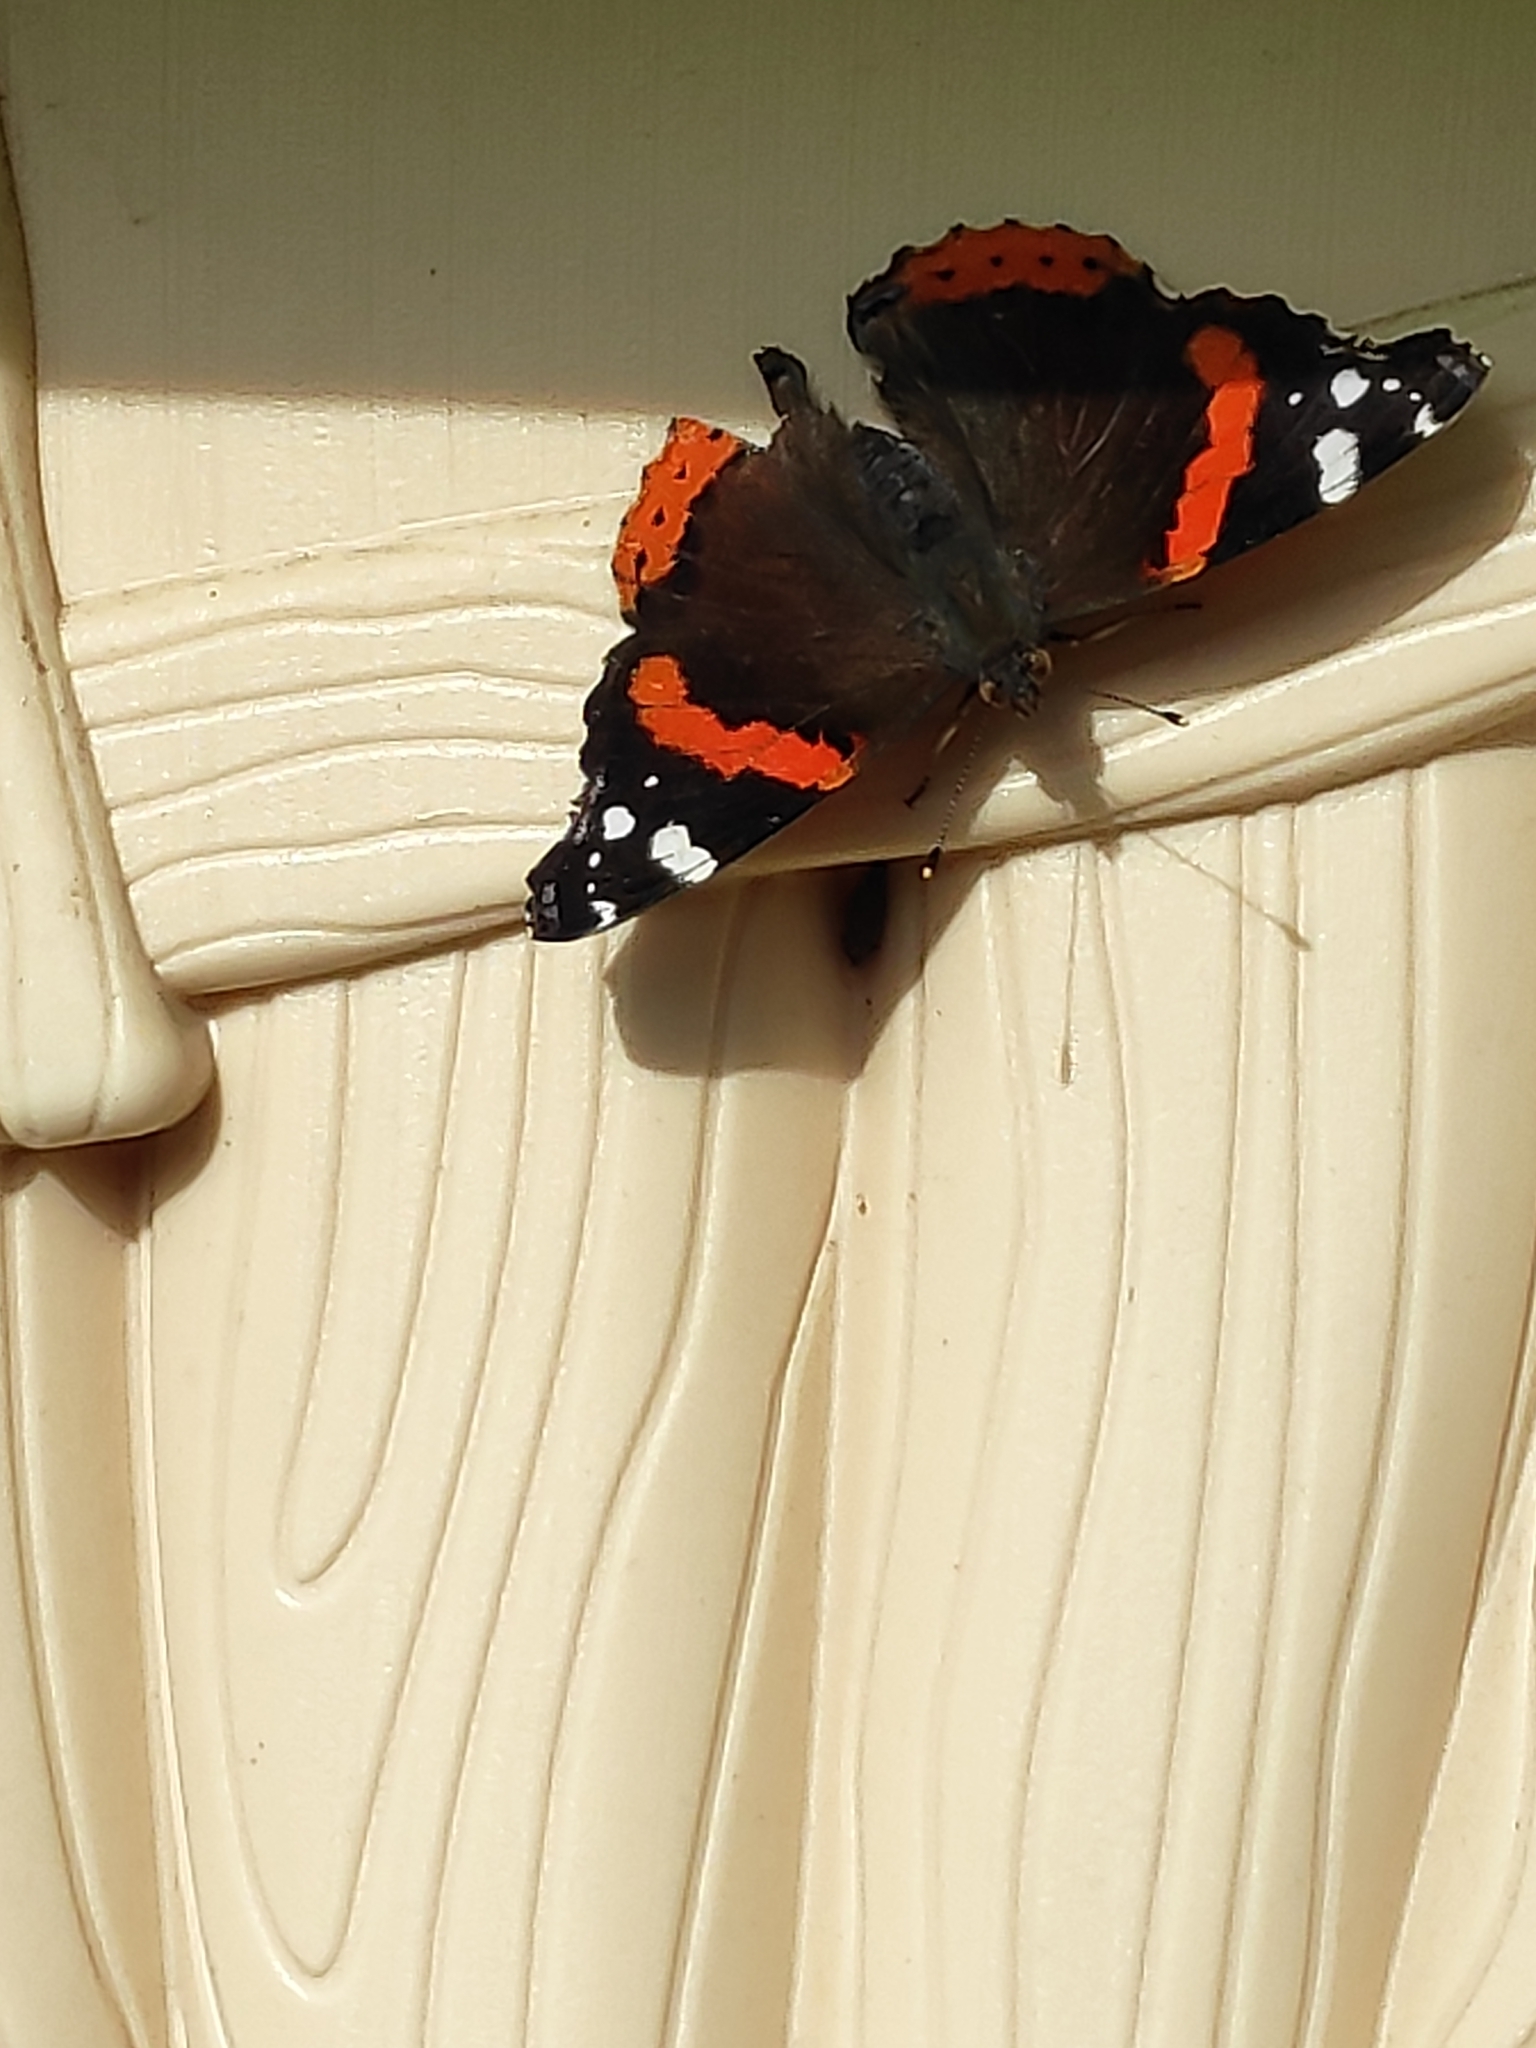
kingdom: Animalia
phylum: Arthropoda
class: Insecta
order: Lepidoptera
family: Nymphalidae
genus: Vanessa
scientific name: Vanessa atalanta
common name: Red admiral
